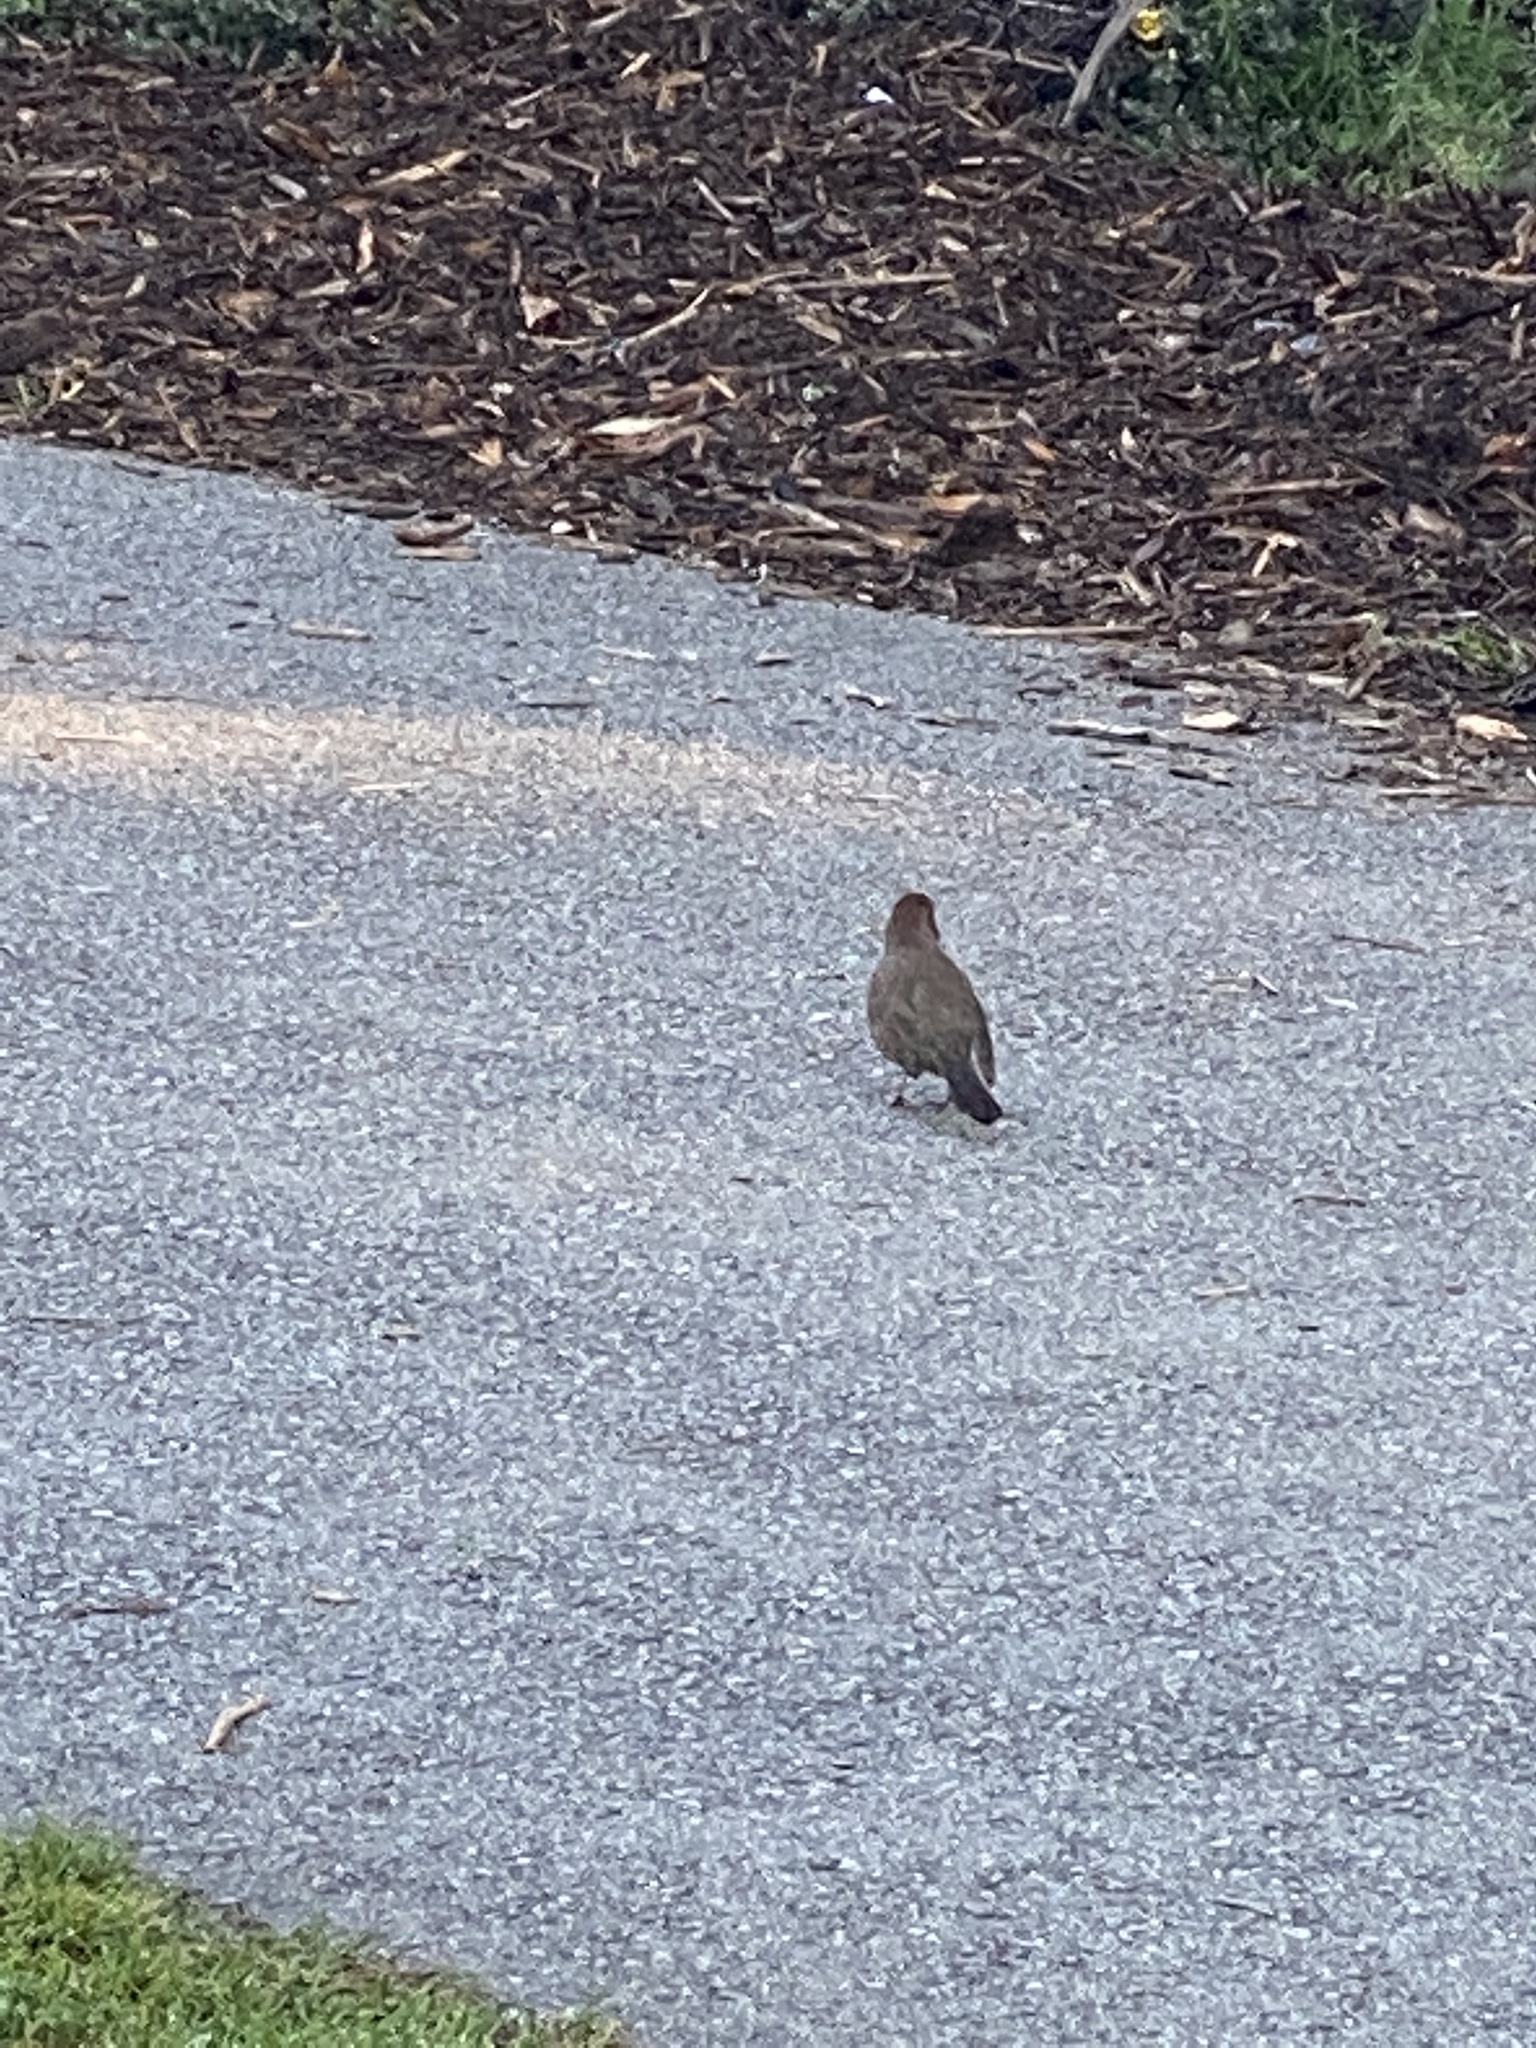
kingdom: Animalia
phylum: Chordata
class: Aves
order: Passeriformes
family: Passerellidae
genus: Melozone
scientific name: Melozone crissalis
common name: California towhee
